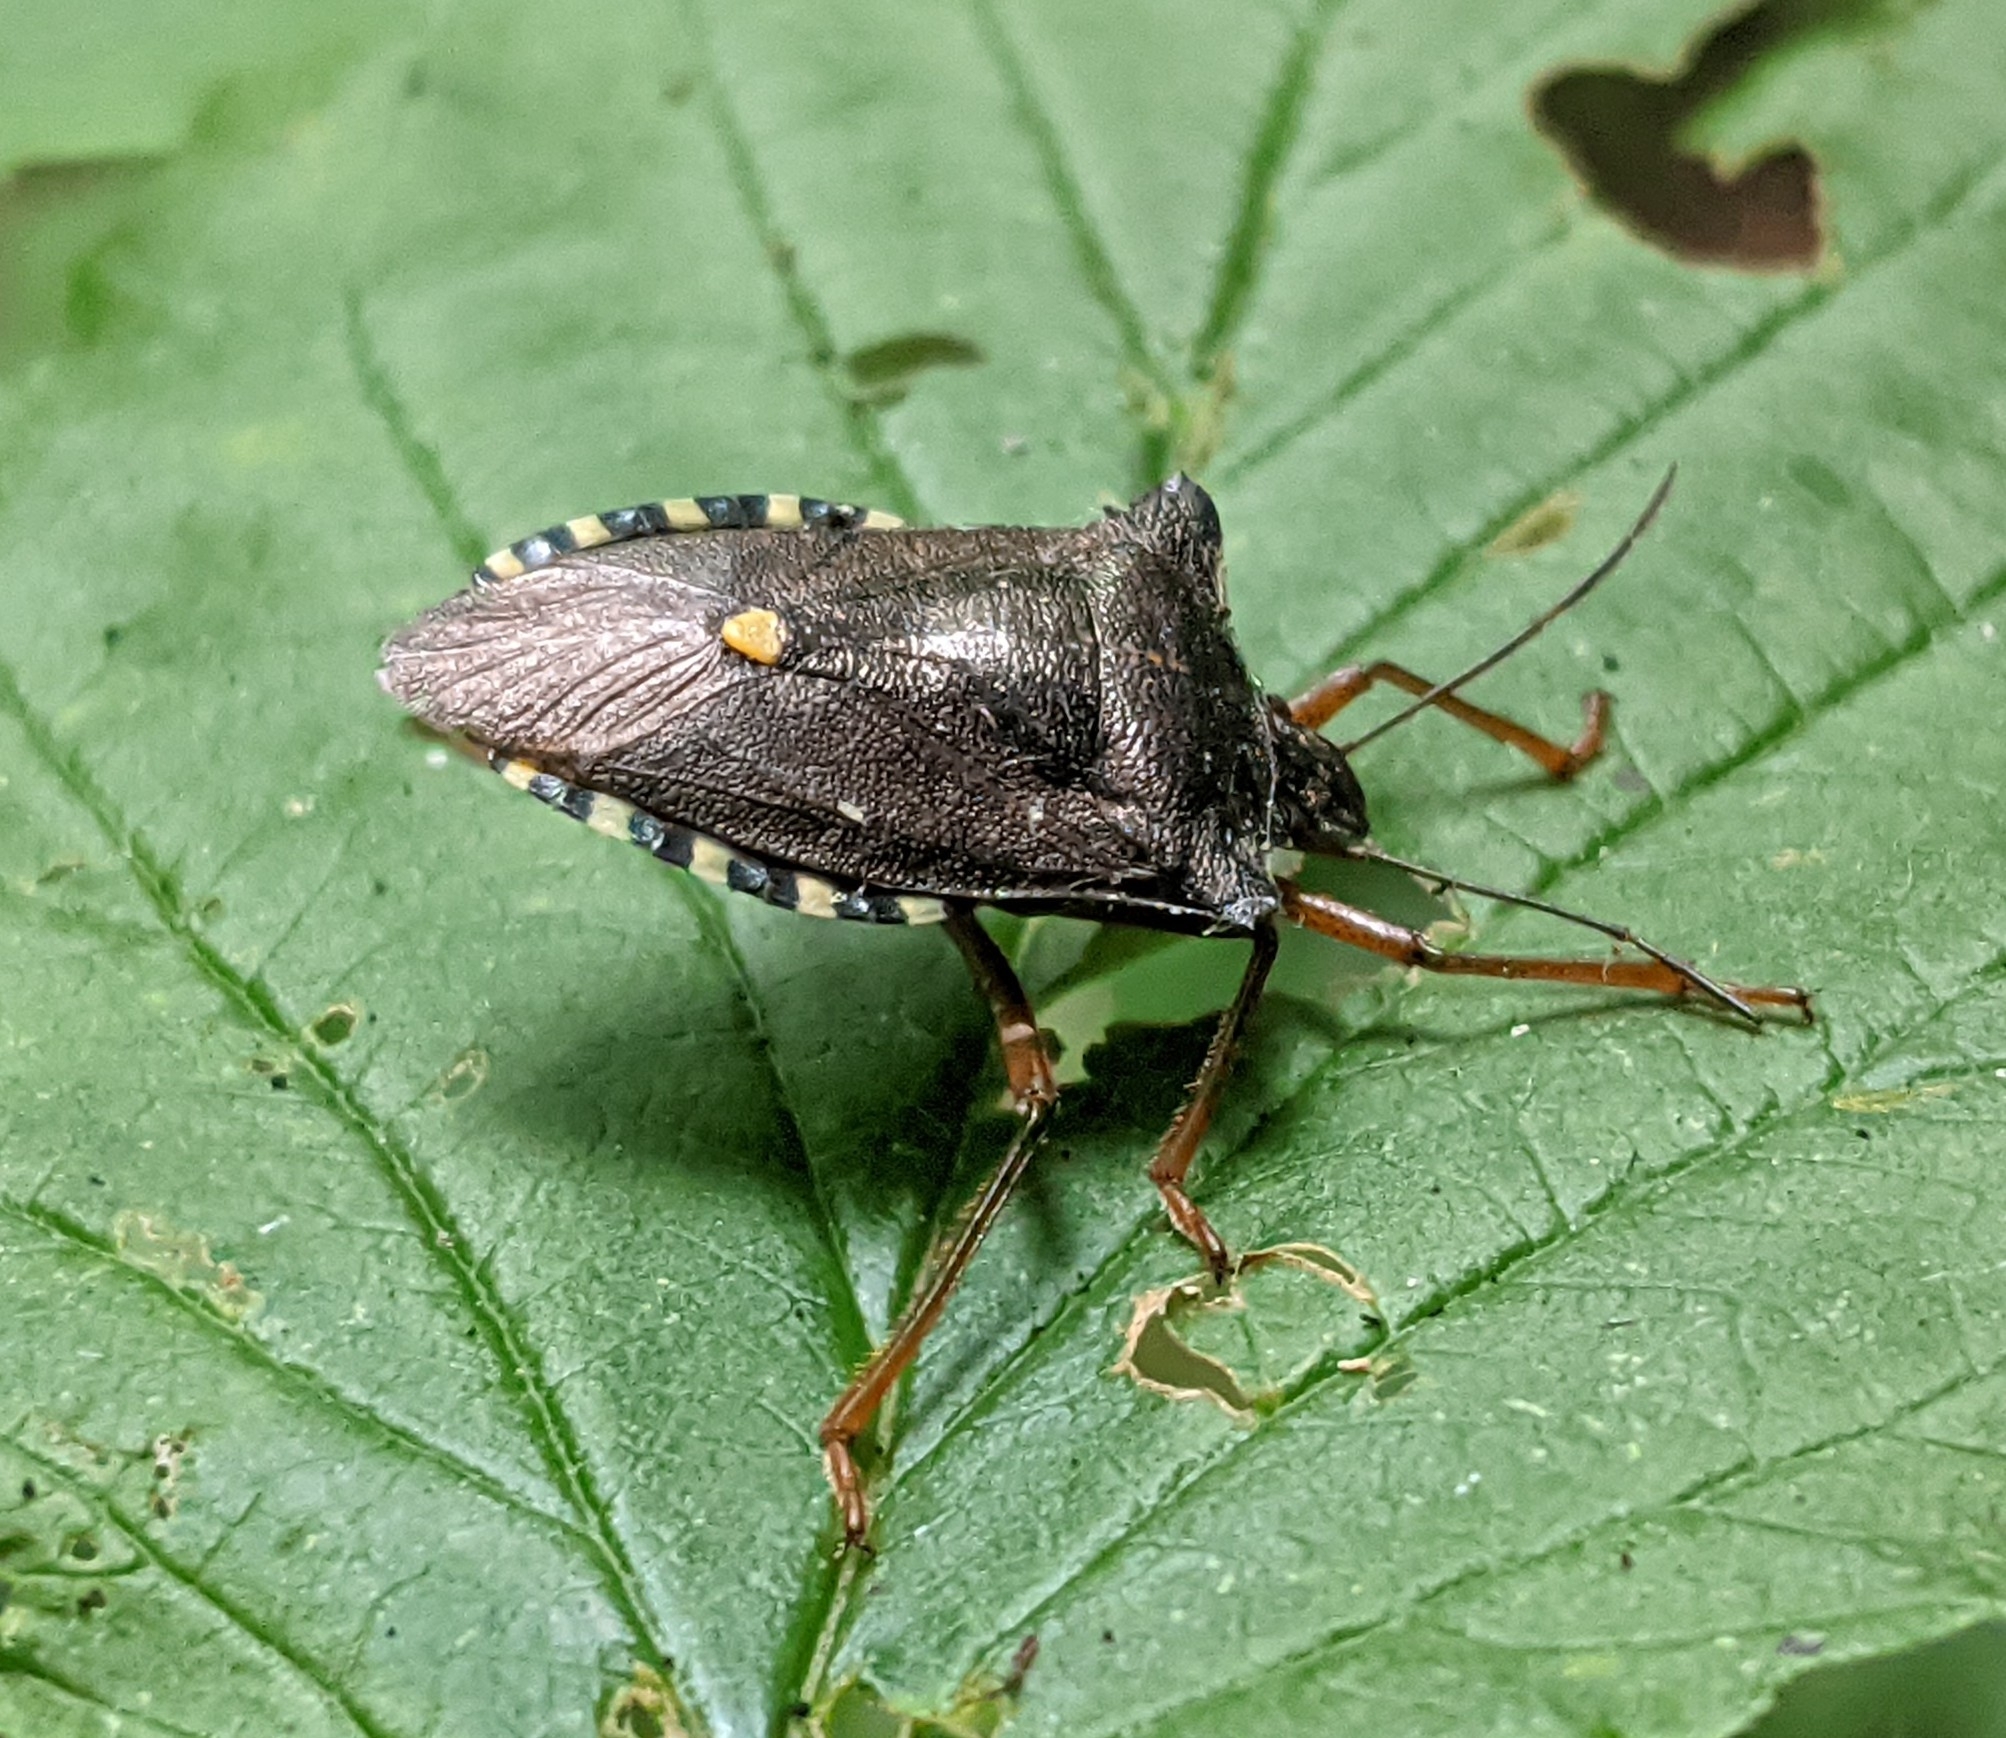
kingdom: Animalia
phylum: Arthropoda
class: Insecta
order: Hemiptera
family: Pentatomidae
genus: Pentatoma
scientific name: Pentatoma rufipes
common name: Forest bug
